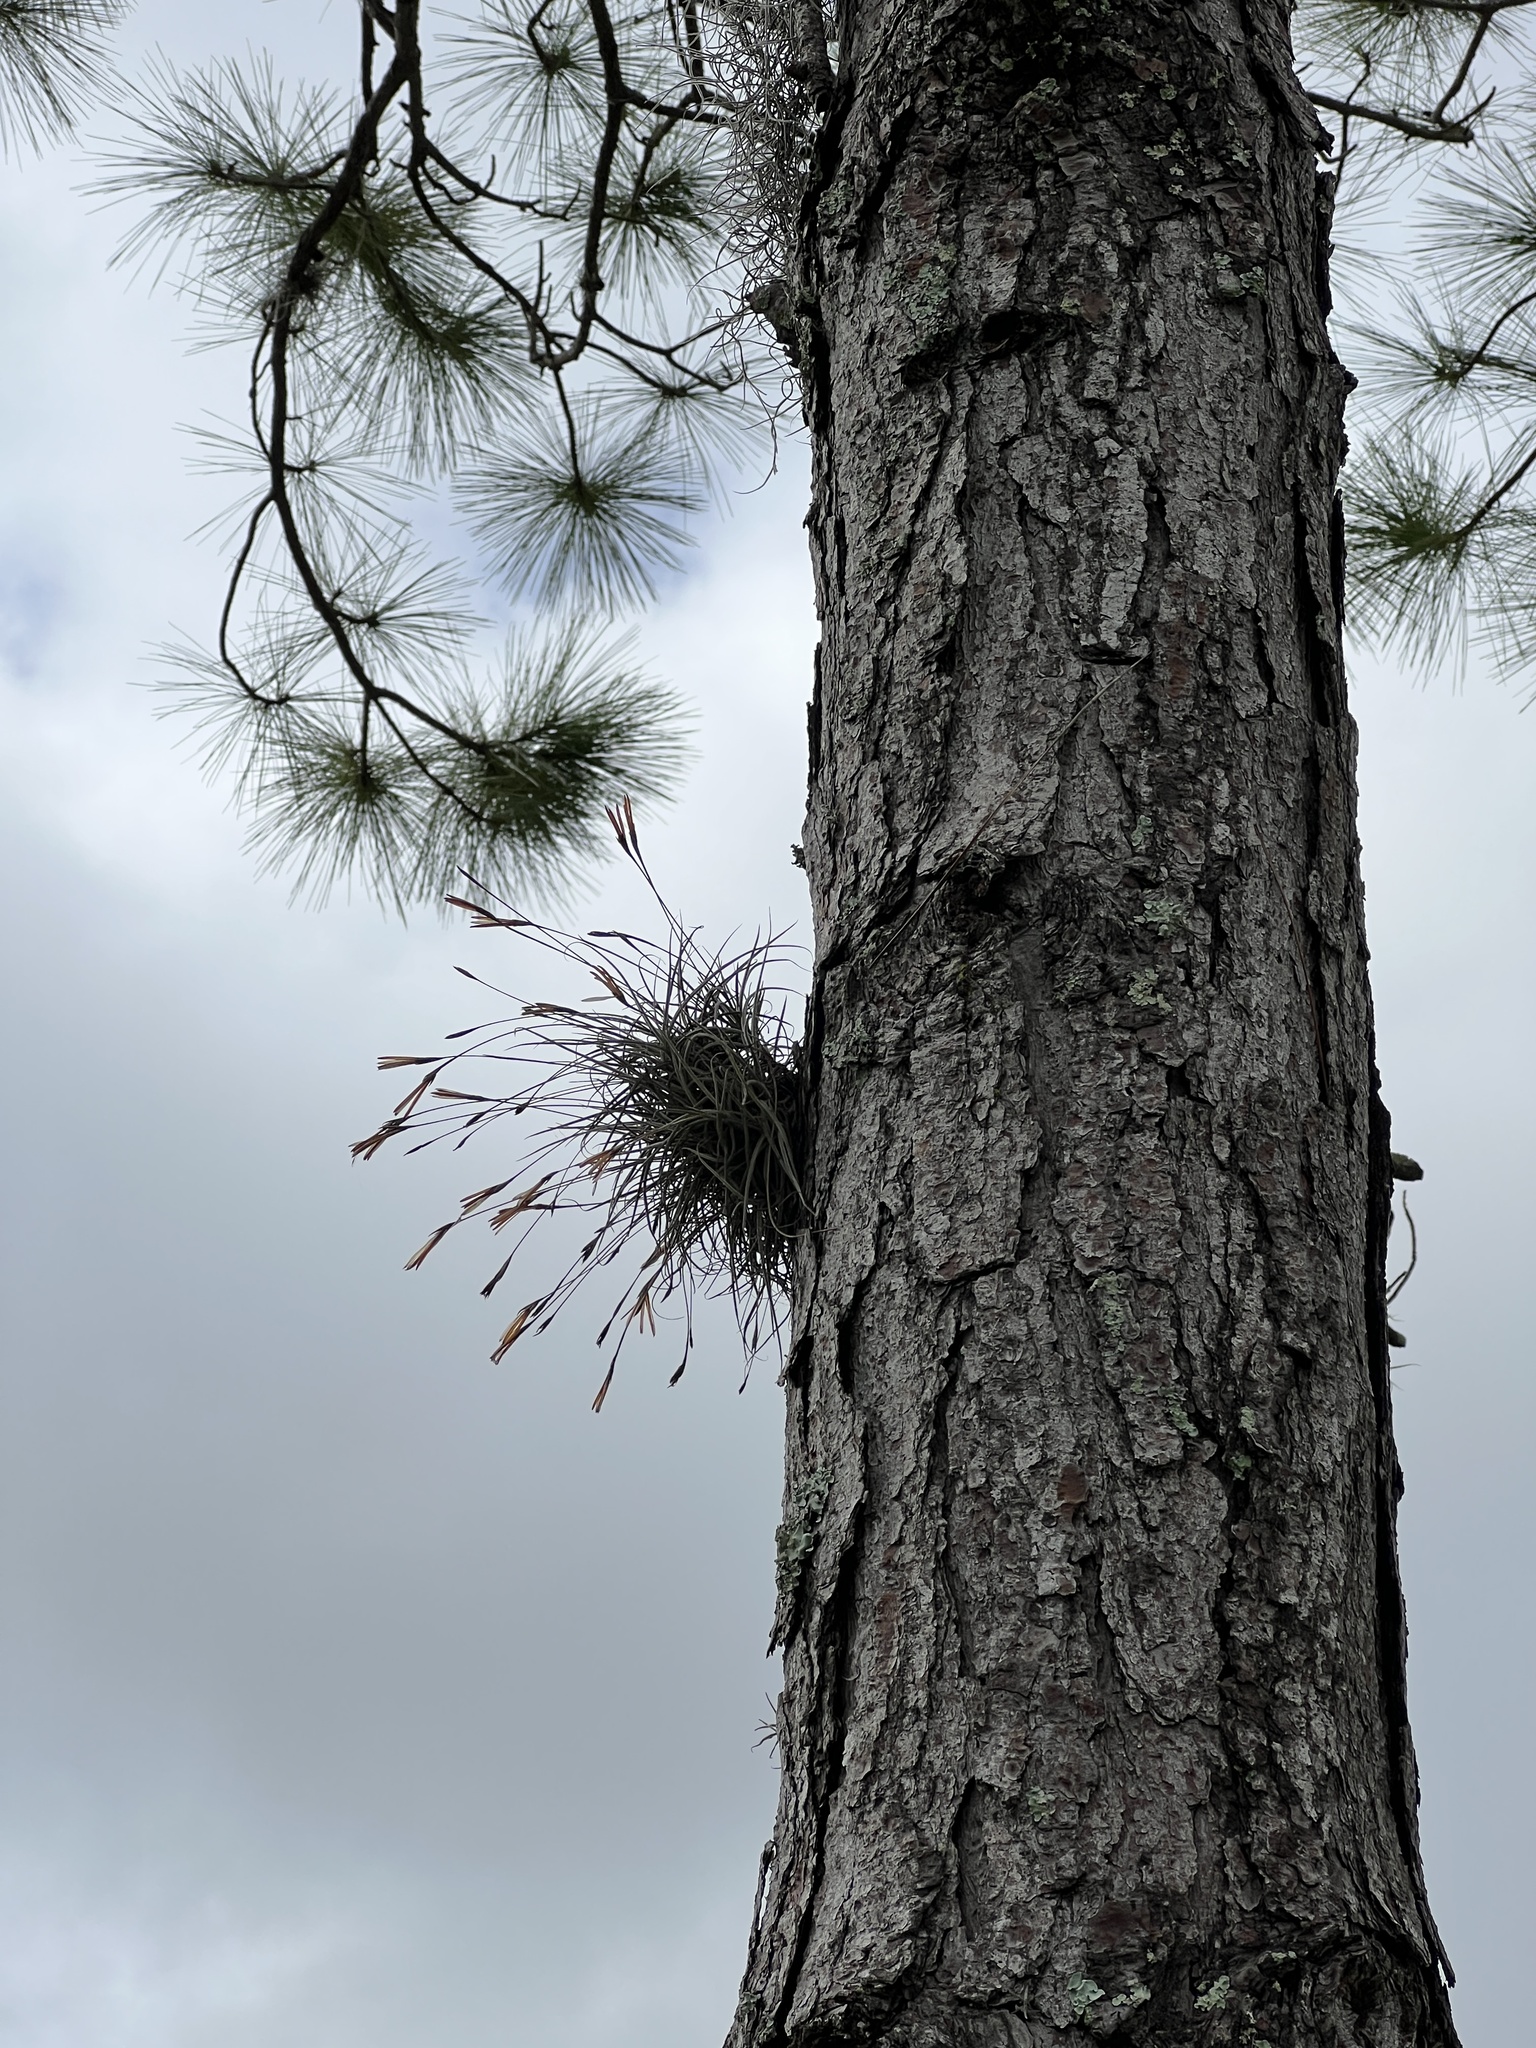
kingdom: Plantae
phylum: Tracheophyta
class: Liliopsida
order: Poales
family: Bromeliaceae
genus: Tillandsia
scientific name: Tillandsia recurvata
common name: Small ballmoss
